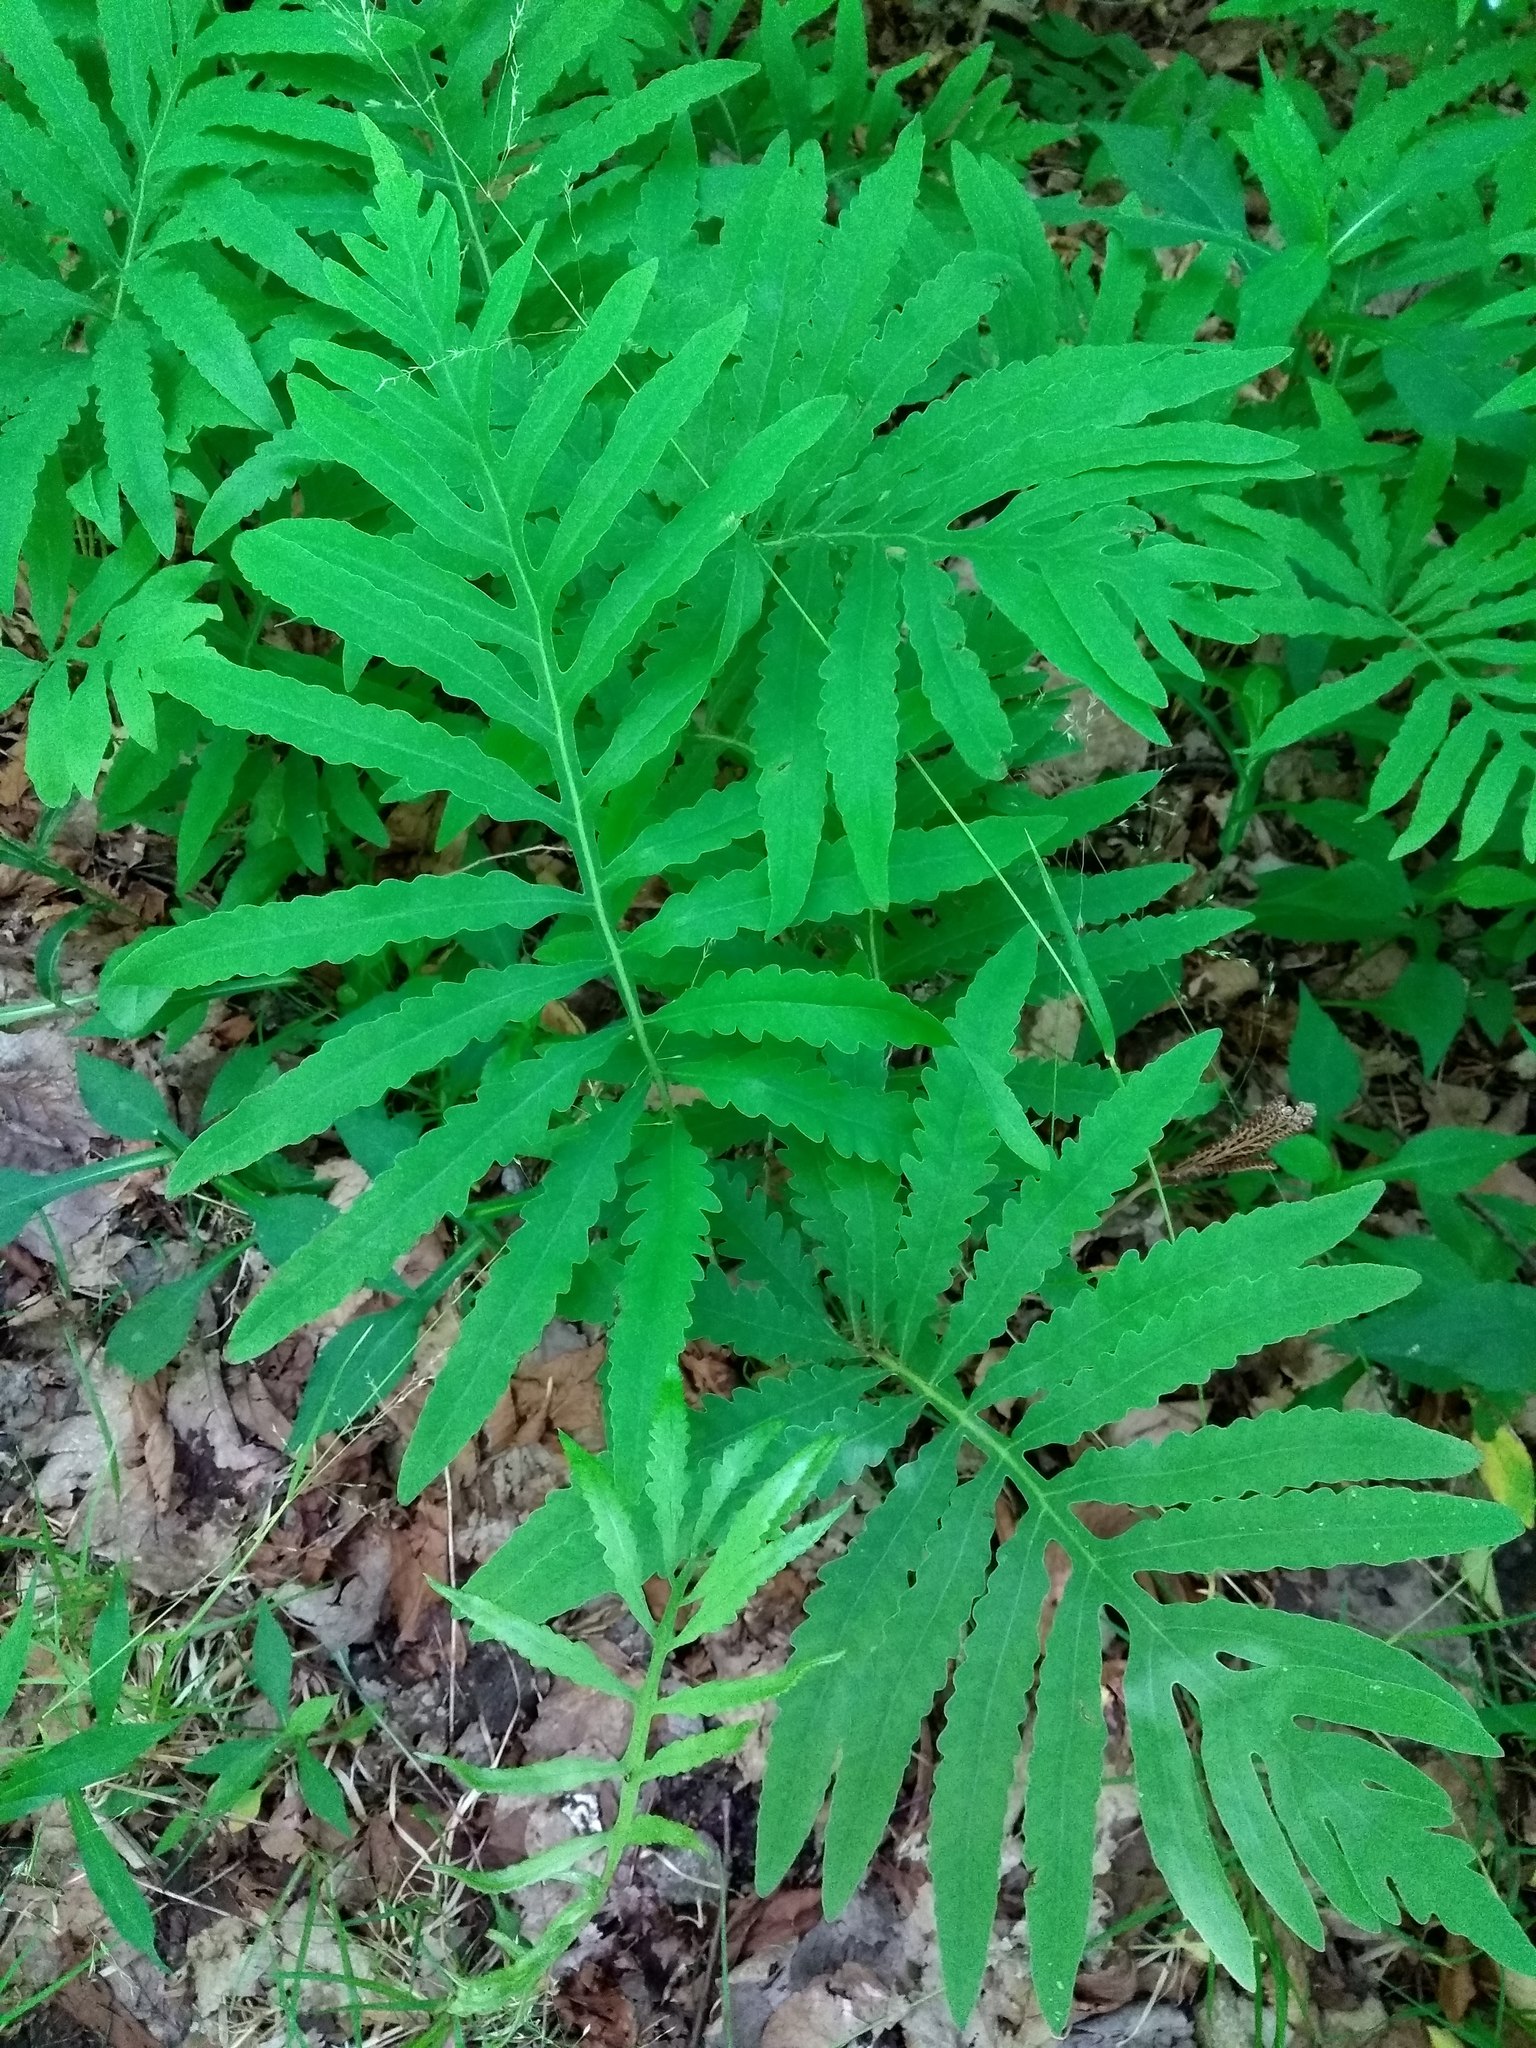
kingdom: Plantae
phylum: Tracheophyta
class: Polypodiopsida
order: Polypodiales
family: Onocleaceae
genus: Onoclea
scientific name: Onoclea sensibilis
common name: Sensitive fern
